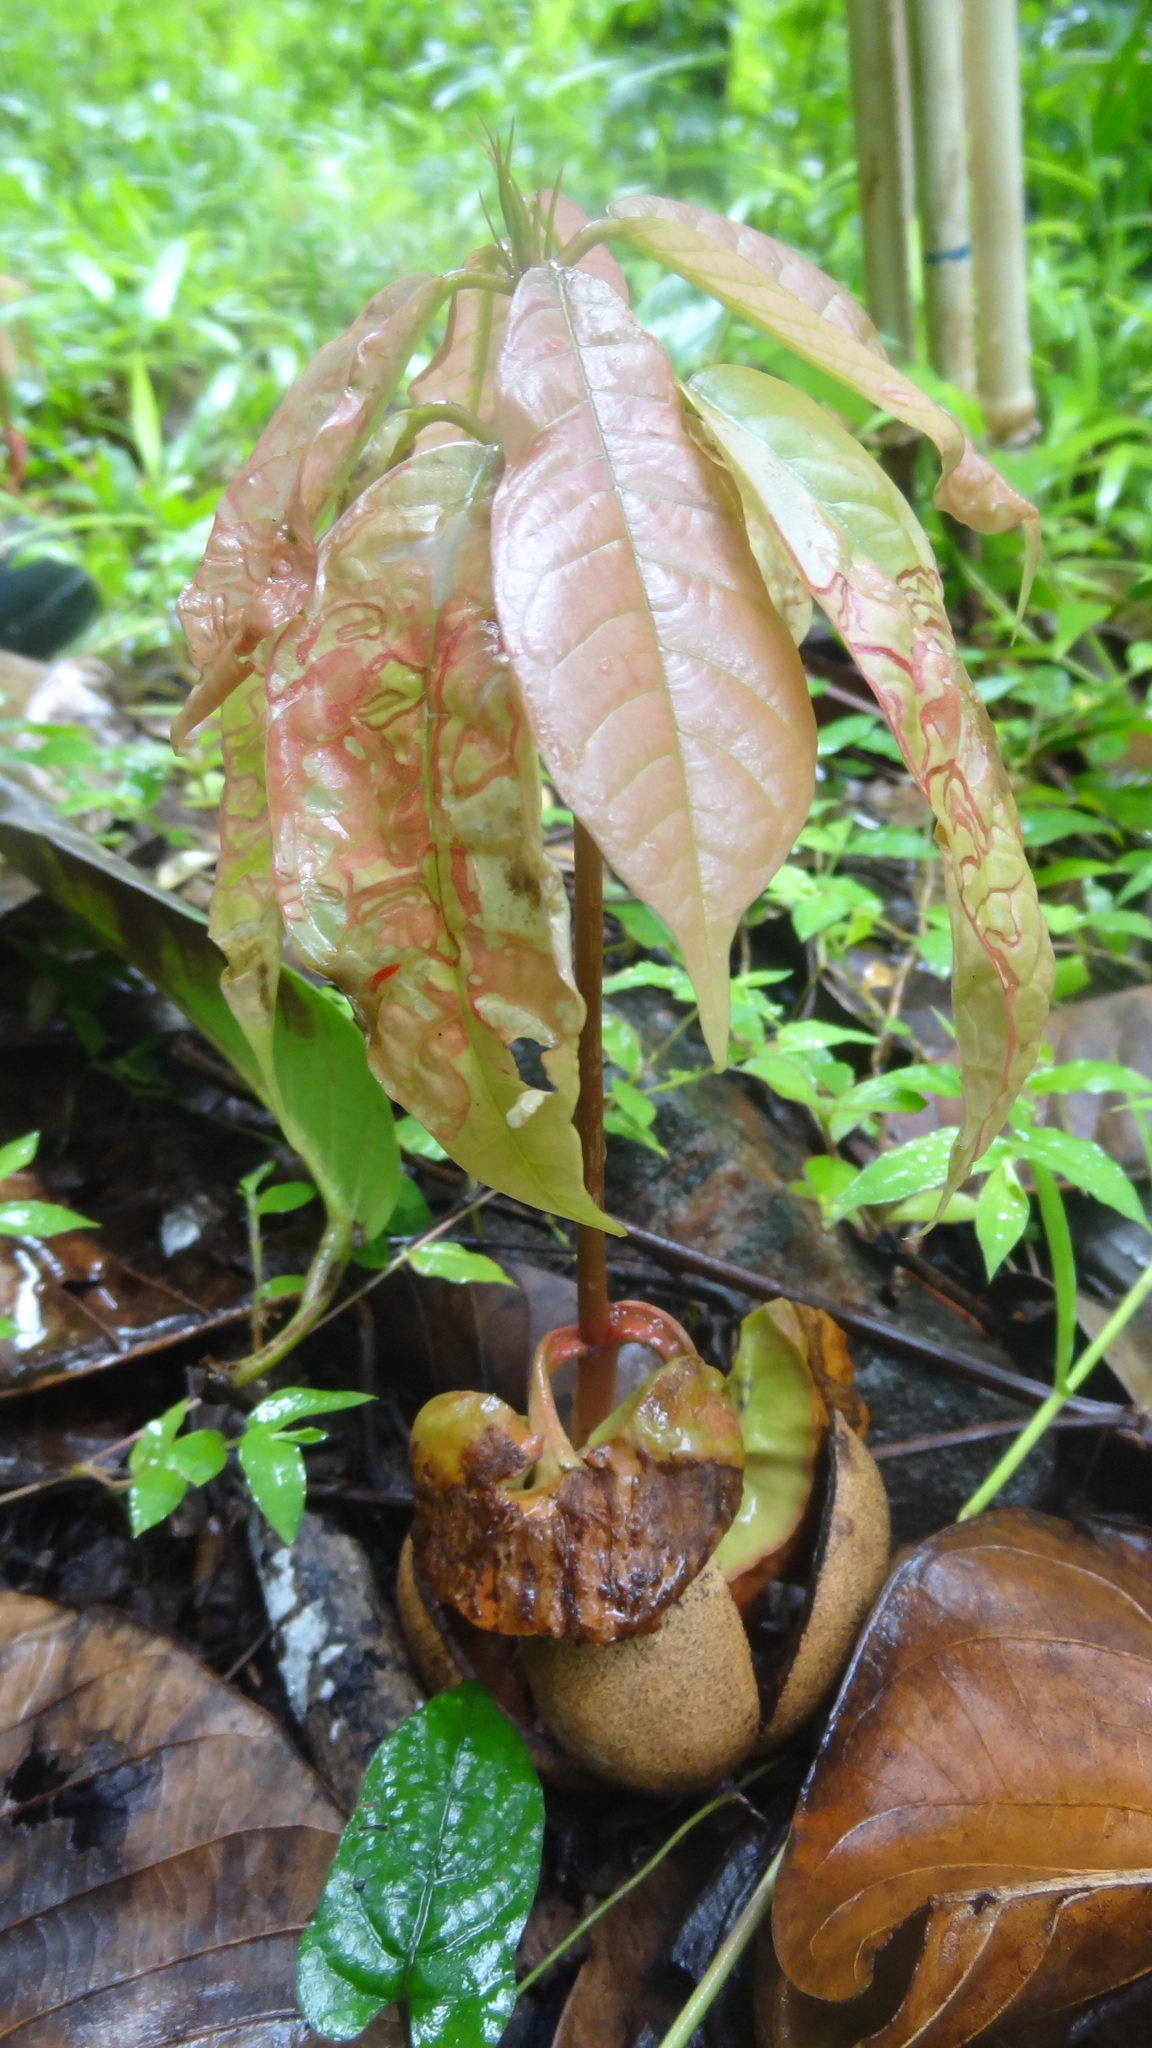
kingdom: Plantae
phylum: Tracheophyta
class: Magnoliopsida
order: Malvales
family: Dipterocarpaceae
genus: Vateria
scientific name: Vateria indica
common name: White dammar
